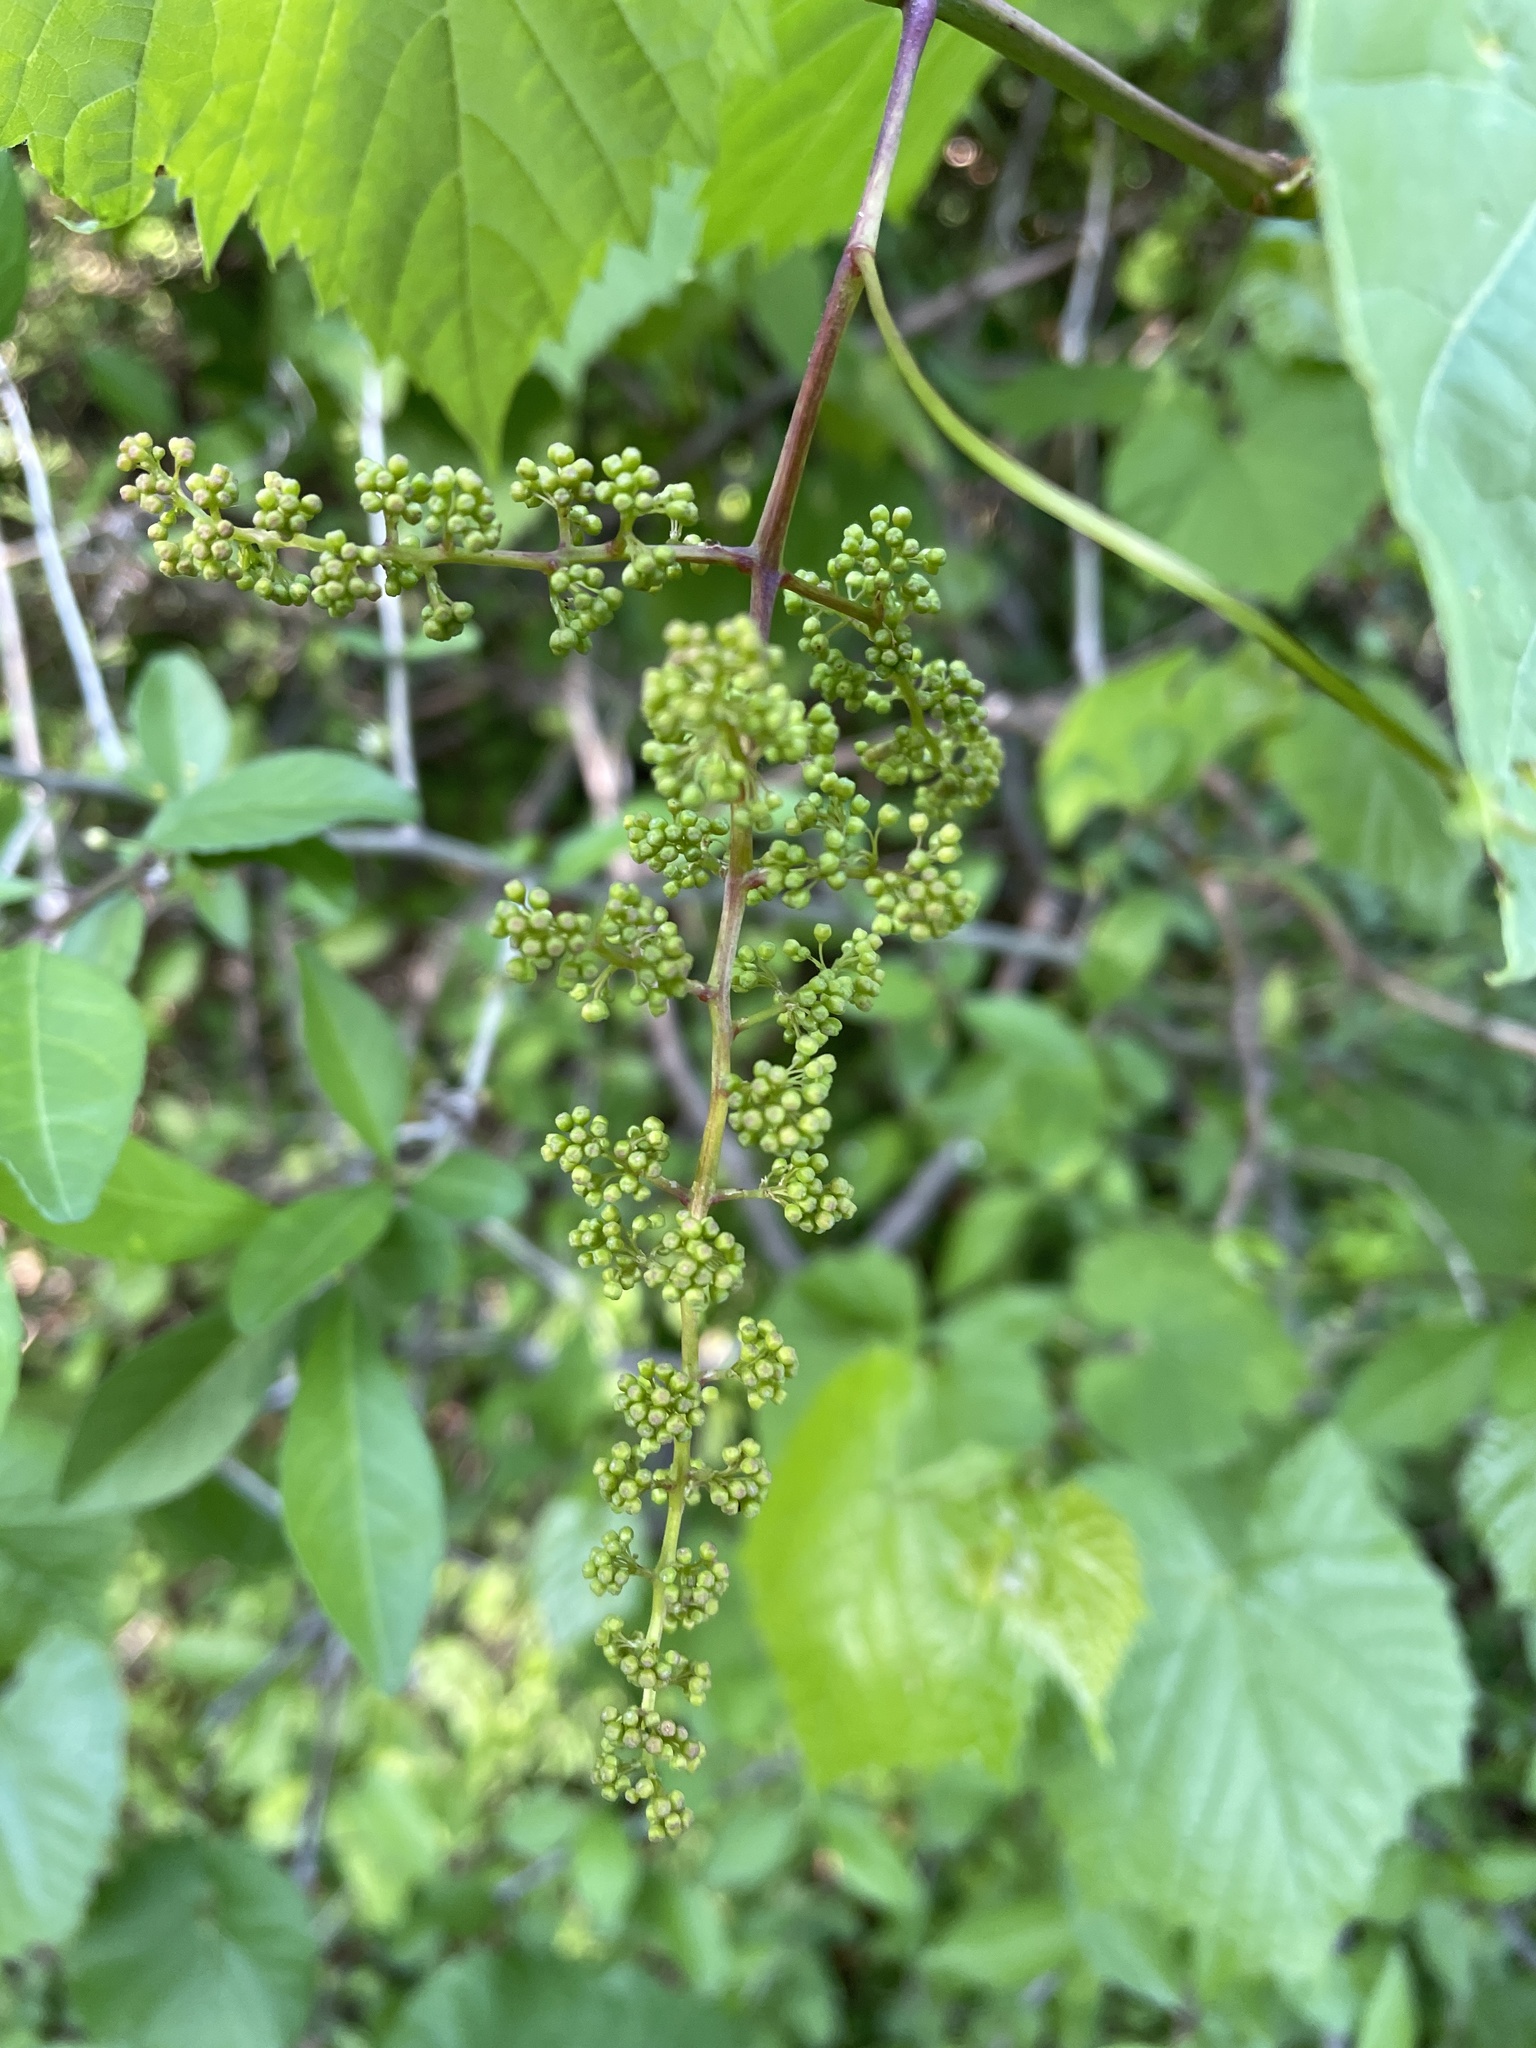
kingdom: Plantae
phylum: Tracheophyta
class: Magnoliopsida
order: Vitales
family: Vitaceae
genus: Vitis
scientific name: Vitis cinerea
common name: Ashy grape
